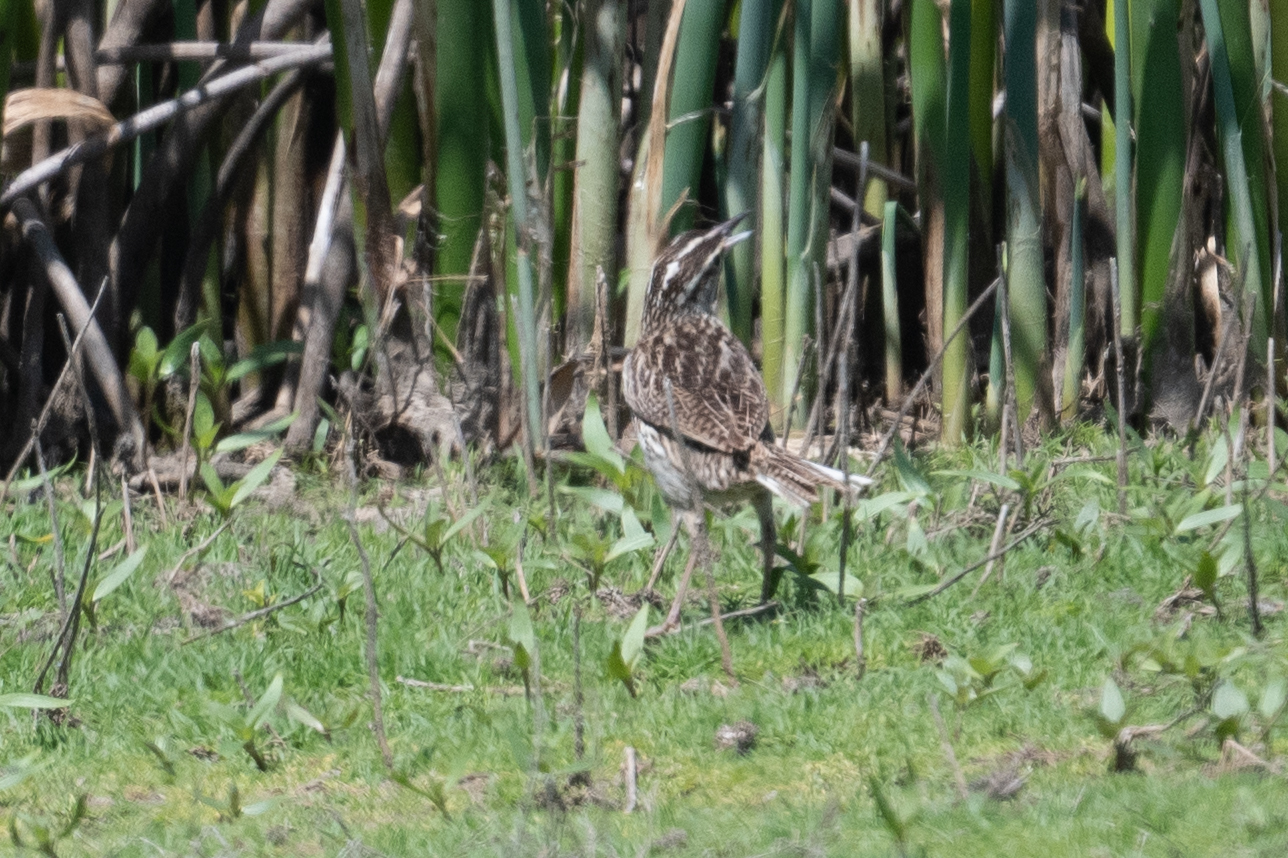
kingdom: Animalia
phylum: Chordata
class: Aves
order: Passeriformes
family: Icteridae
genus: Sturnella
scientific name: Sturnella neglecta
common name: Western meadowlark
